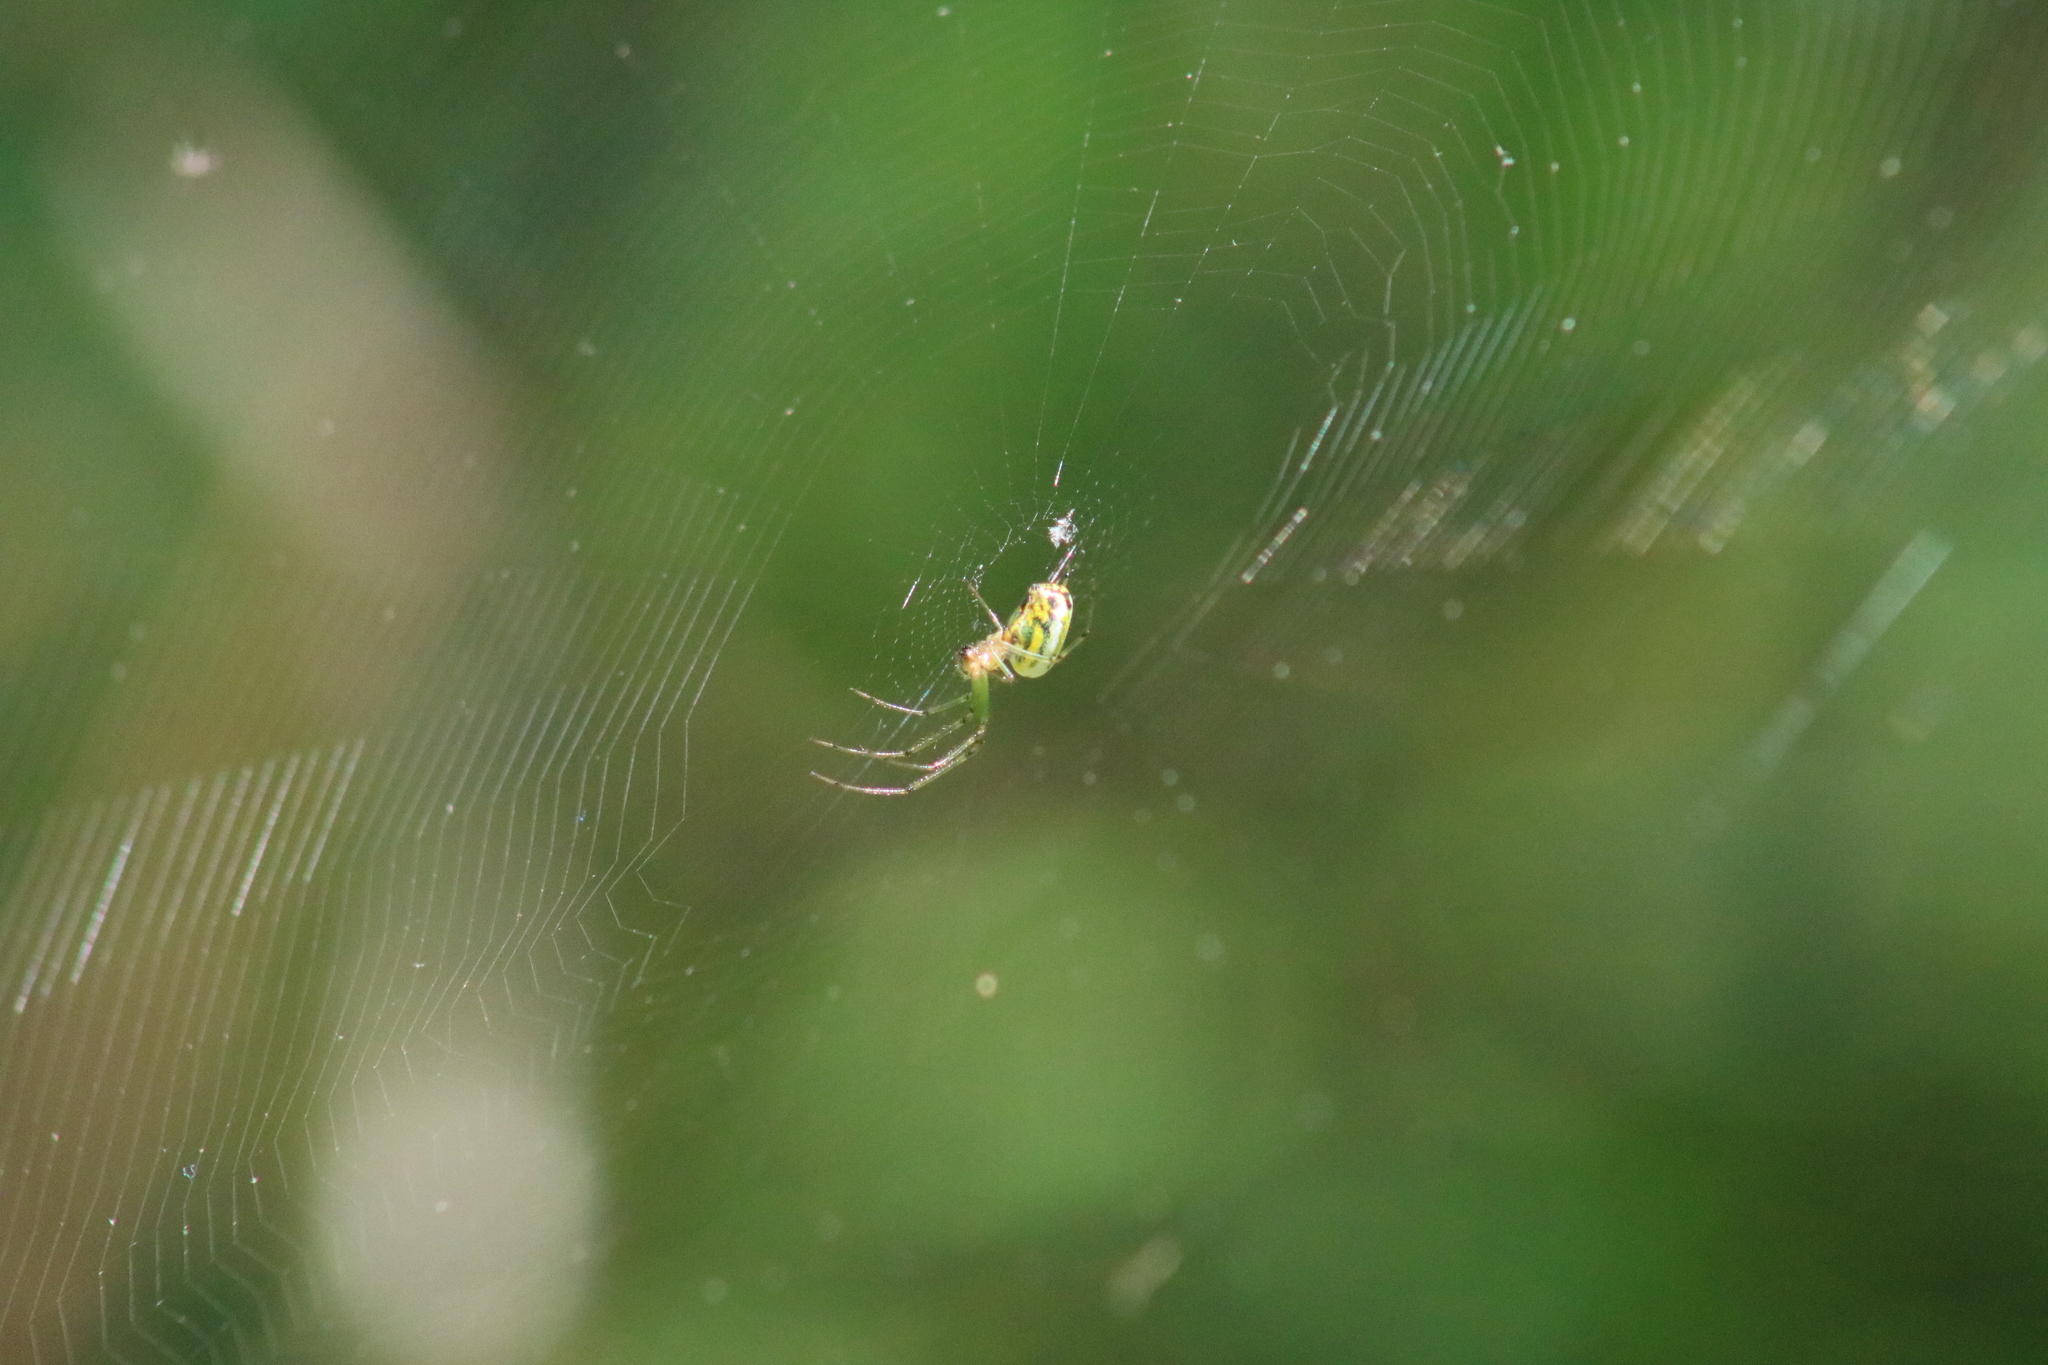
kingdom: Animalia
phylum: Arthropoda
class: Arachnida
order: Araneae
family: Tetragnathidae
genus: Leucauge
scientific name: Leucauge venusta
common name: Longjawed orb weavers
